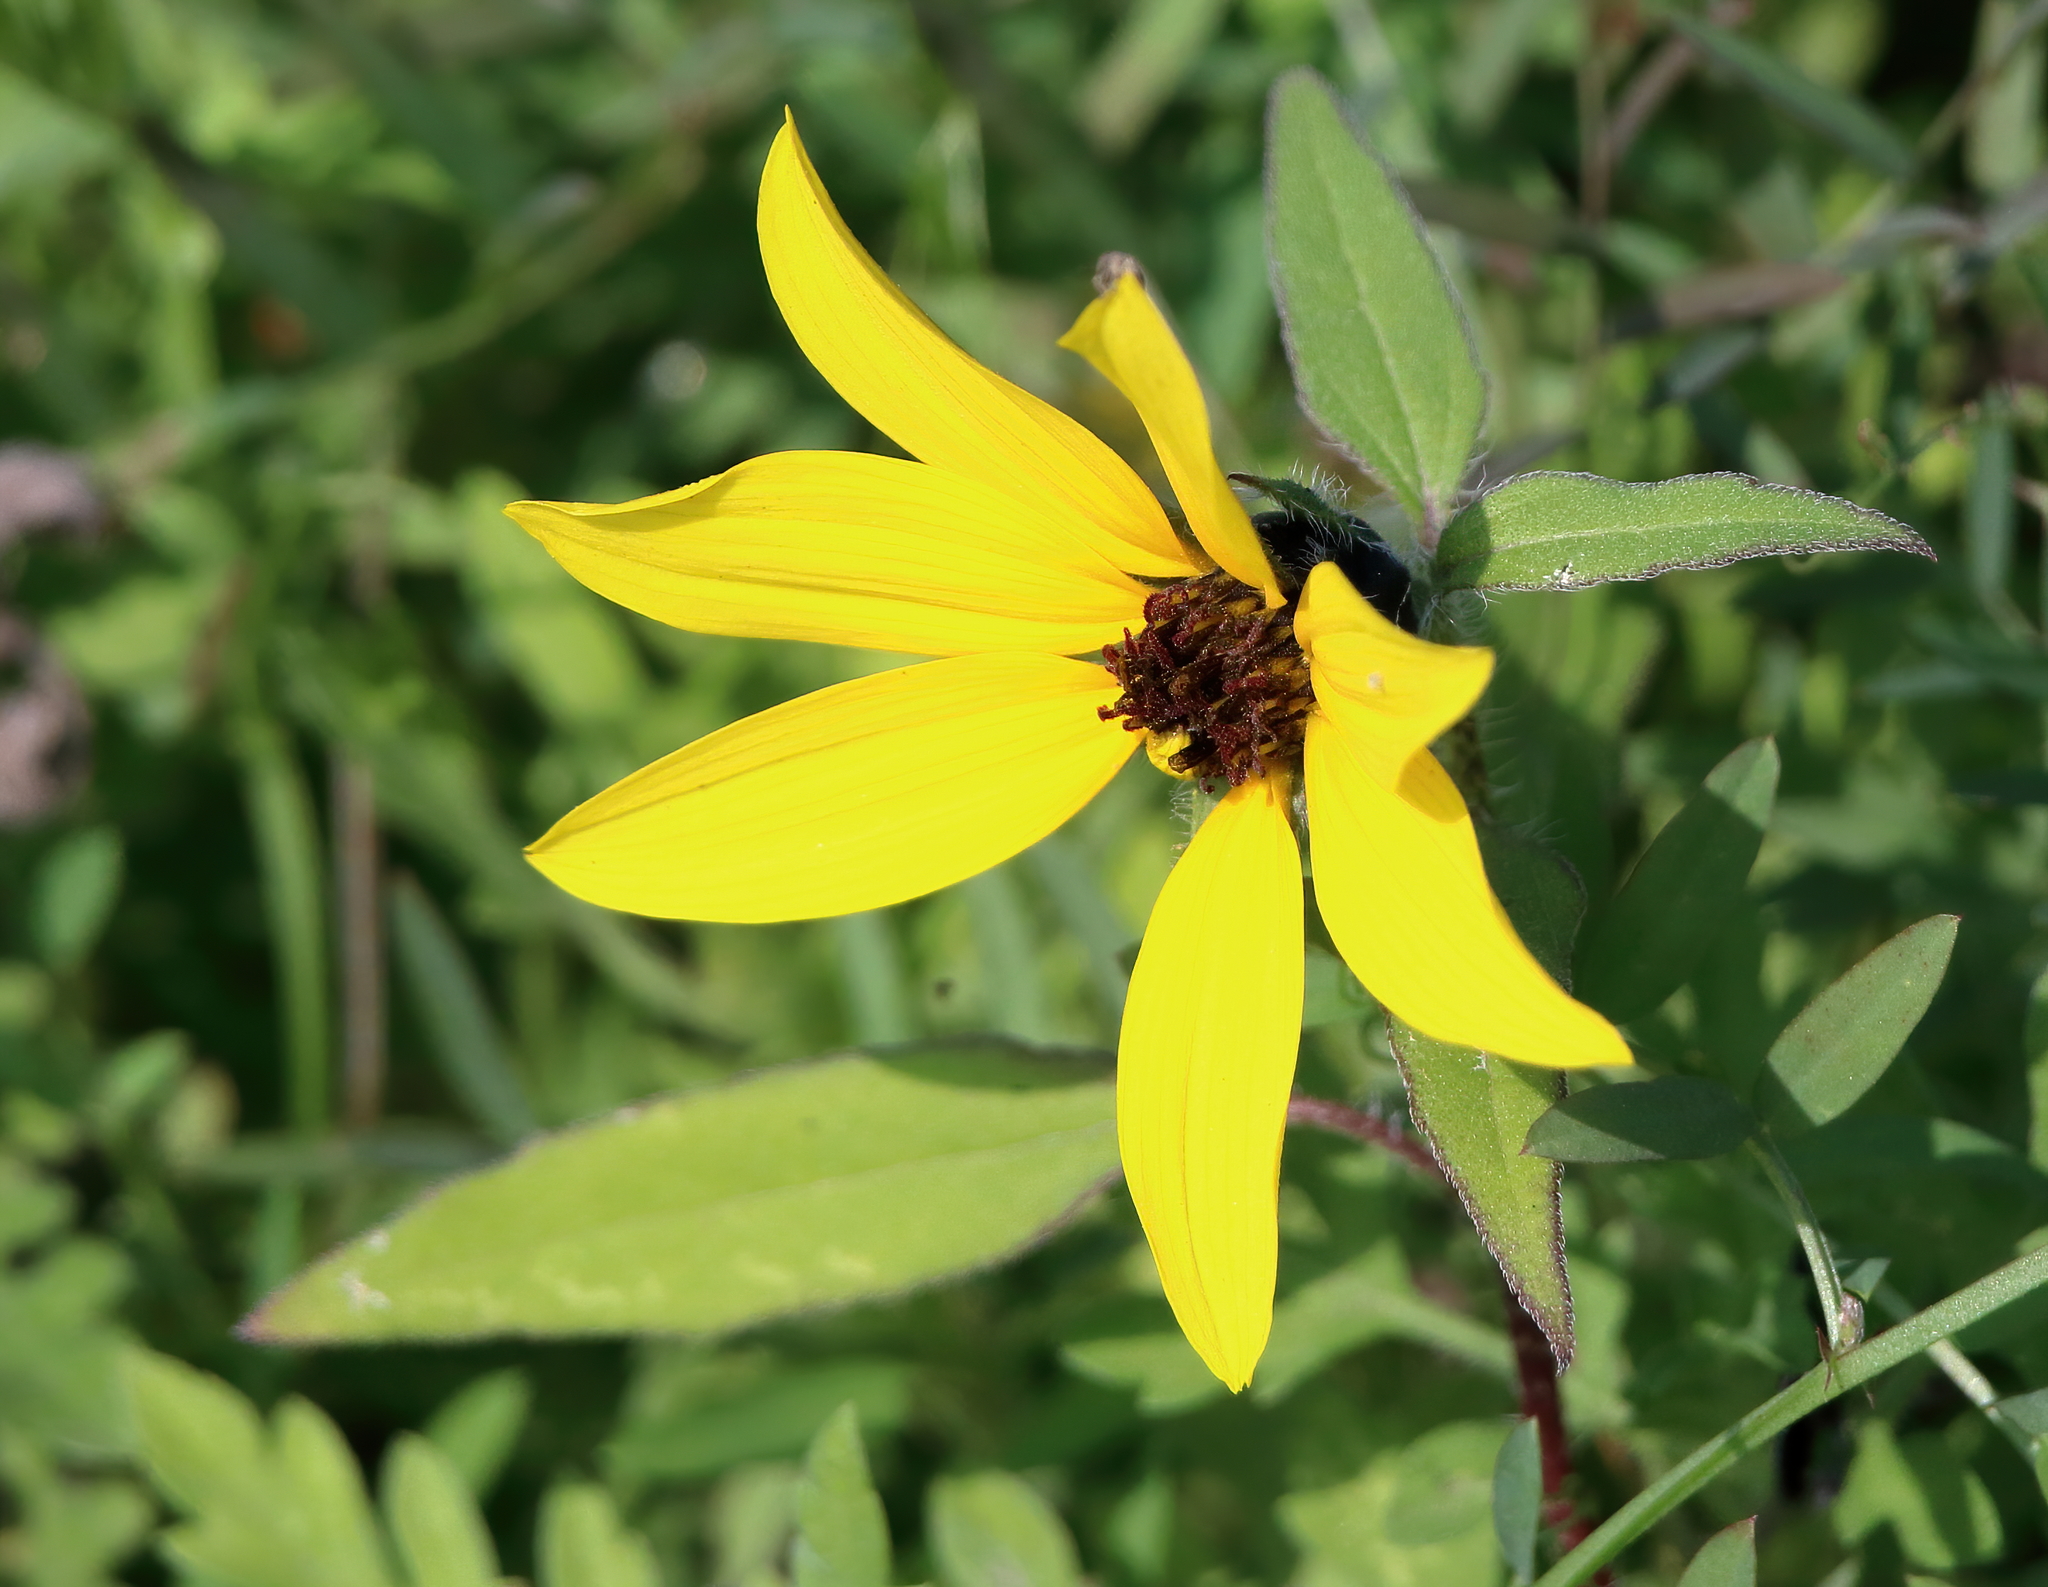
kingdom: Plantae
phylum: Tracheophyta
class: Magnoliopsida
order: Asterales
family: Asteraceae
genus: Helianthus
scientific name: Helianthus annuus
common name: Sunflower
